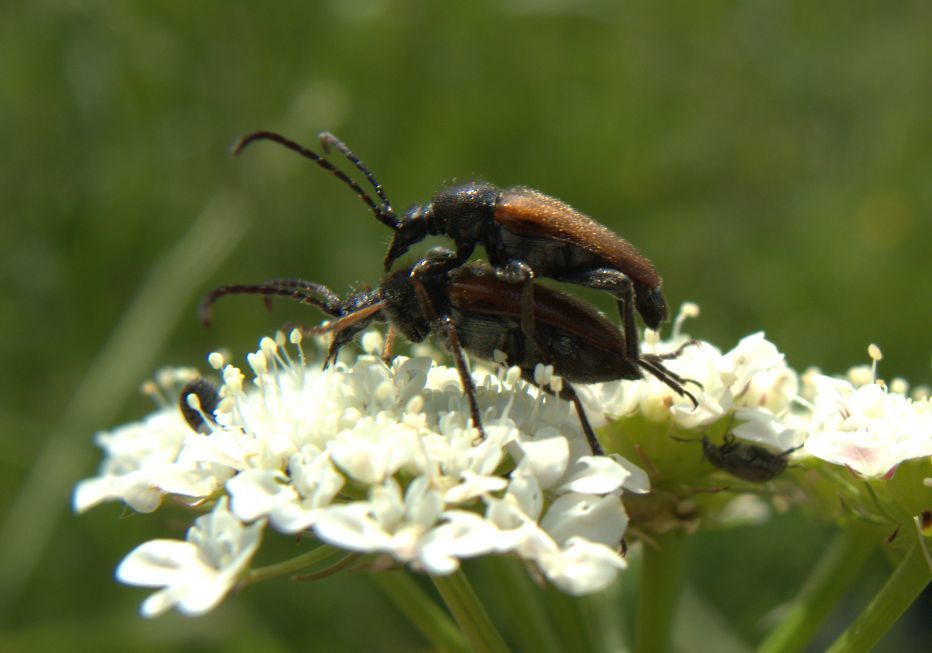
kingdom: Animalia
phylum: Arthropoda
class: Insecta
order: Coleoptera
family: Cerambycidae
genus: Pseudovadonia
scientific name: Pseudovadonia livida
